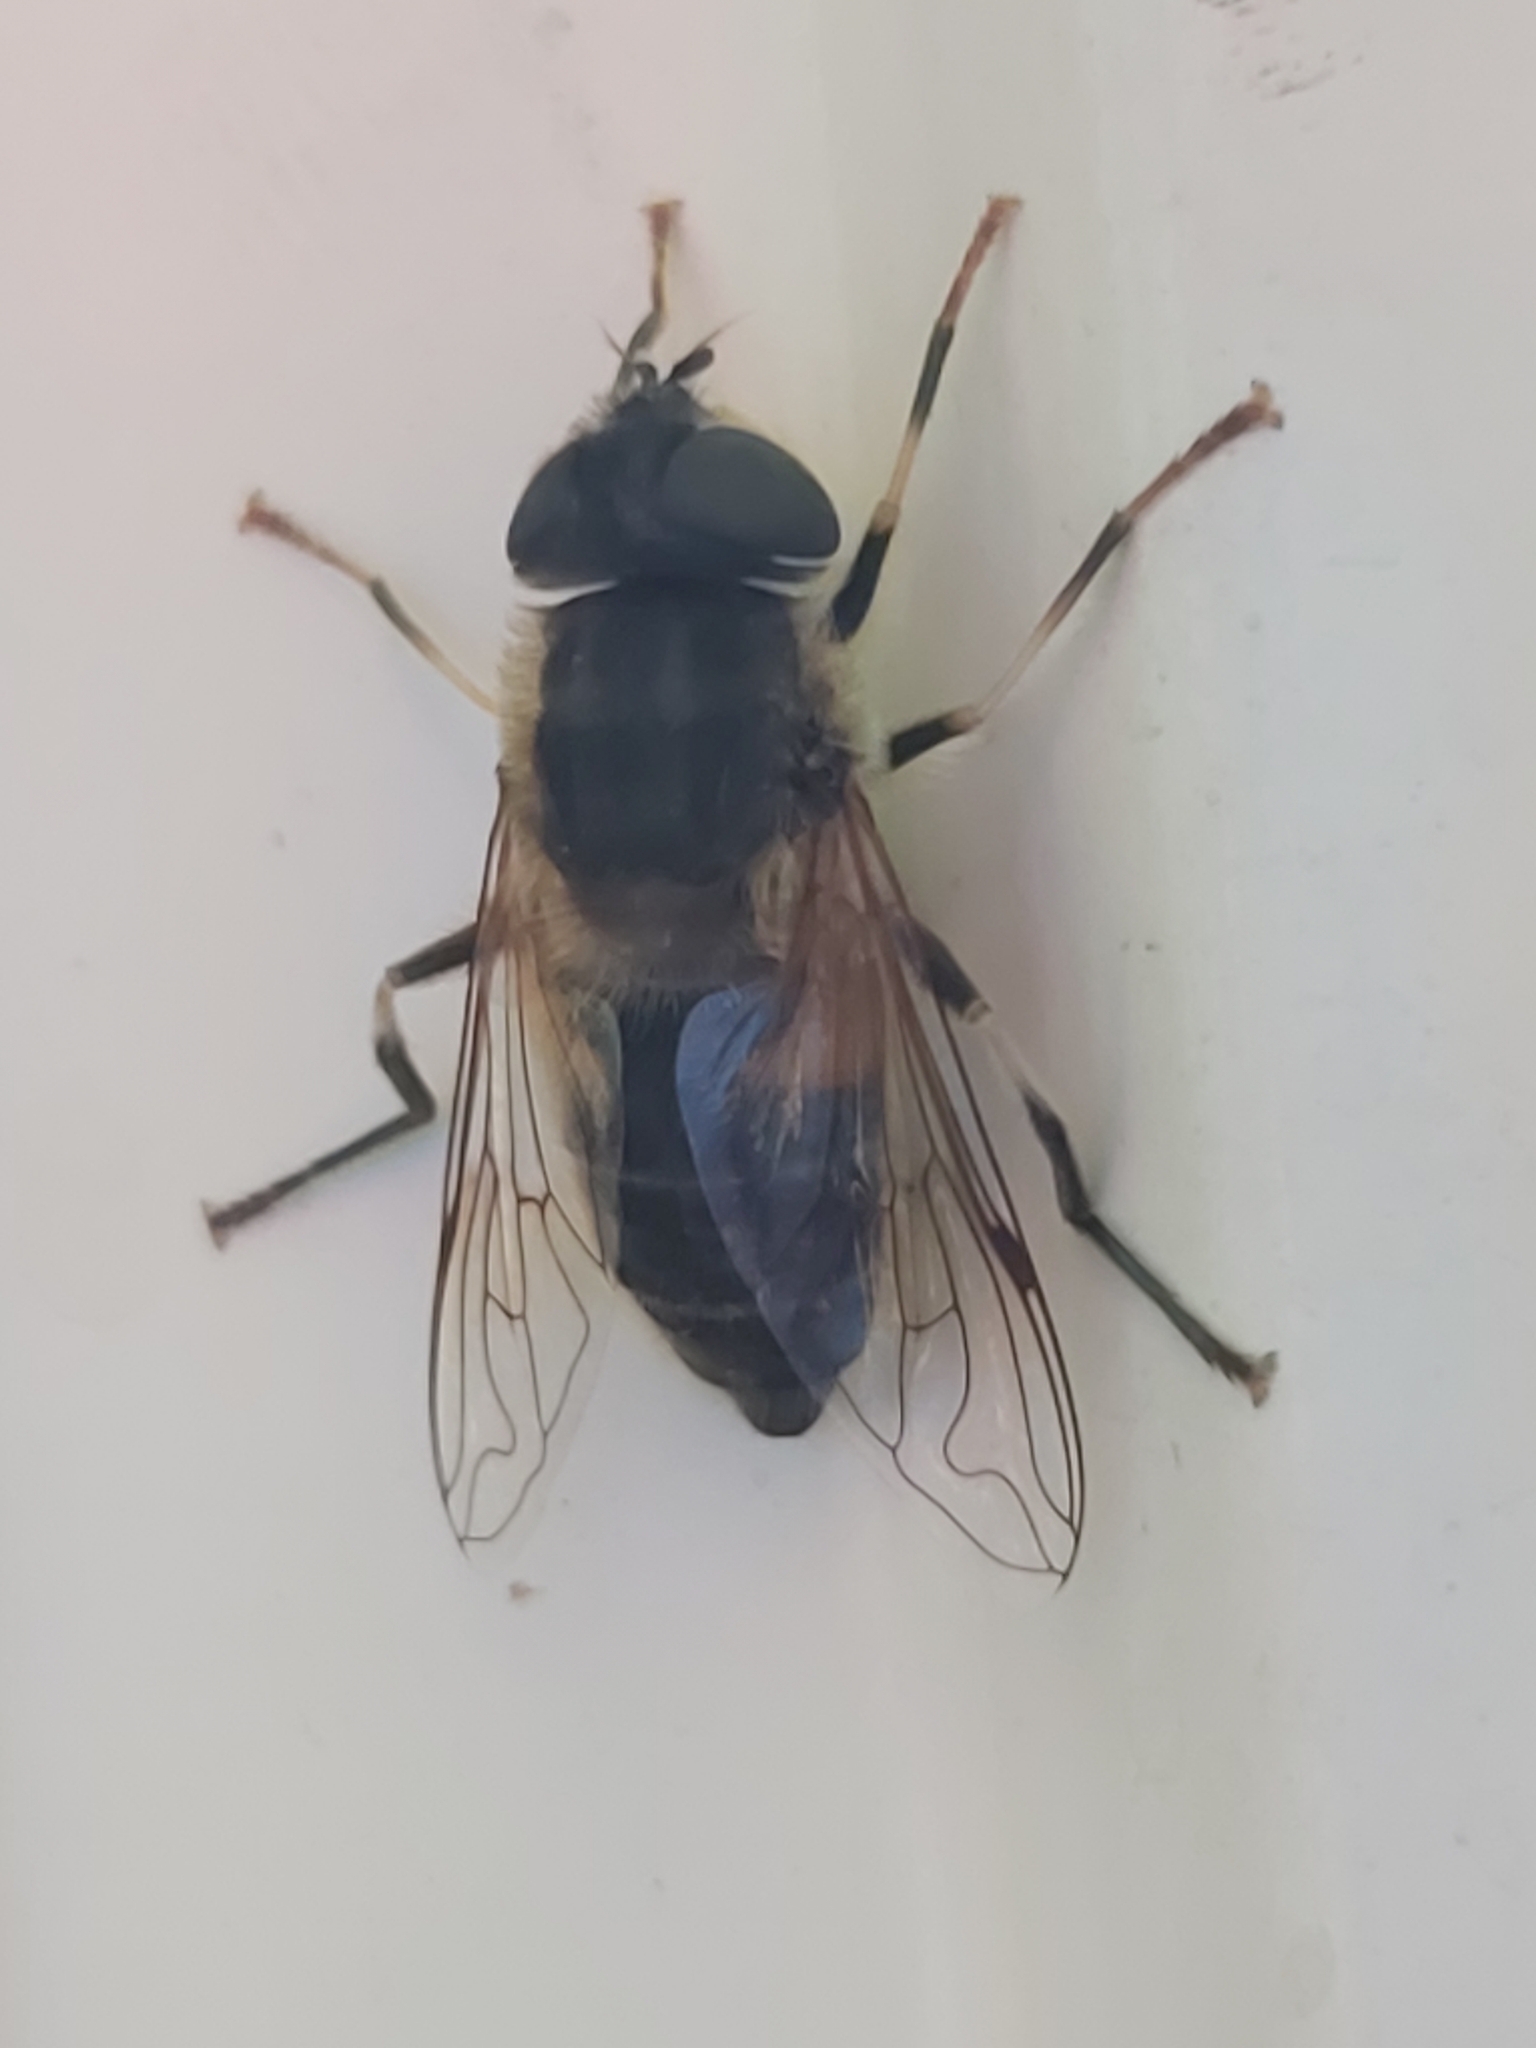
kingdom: Animalia
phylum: Arthropoda
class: Insecta
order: Diptera
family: Syrphidae
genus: Eristalis
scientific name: Eristalis pertinax
